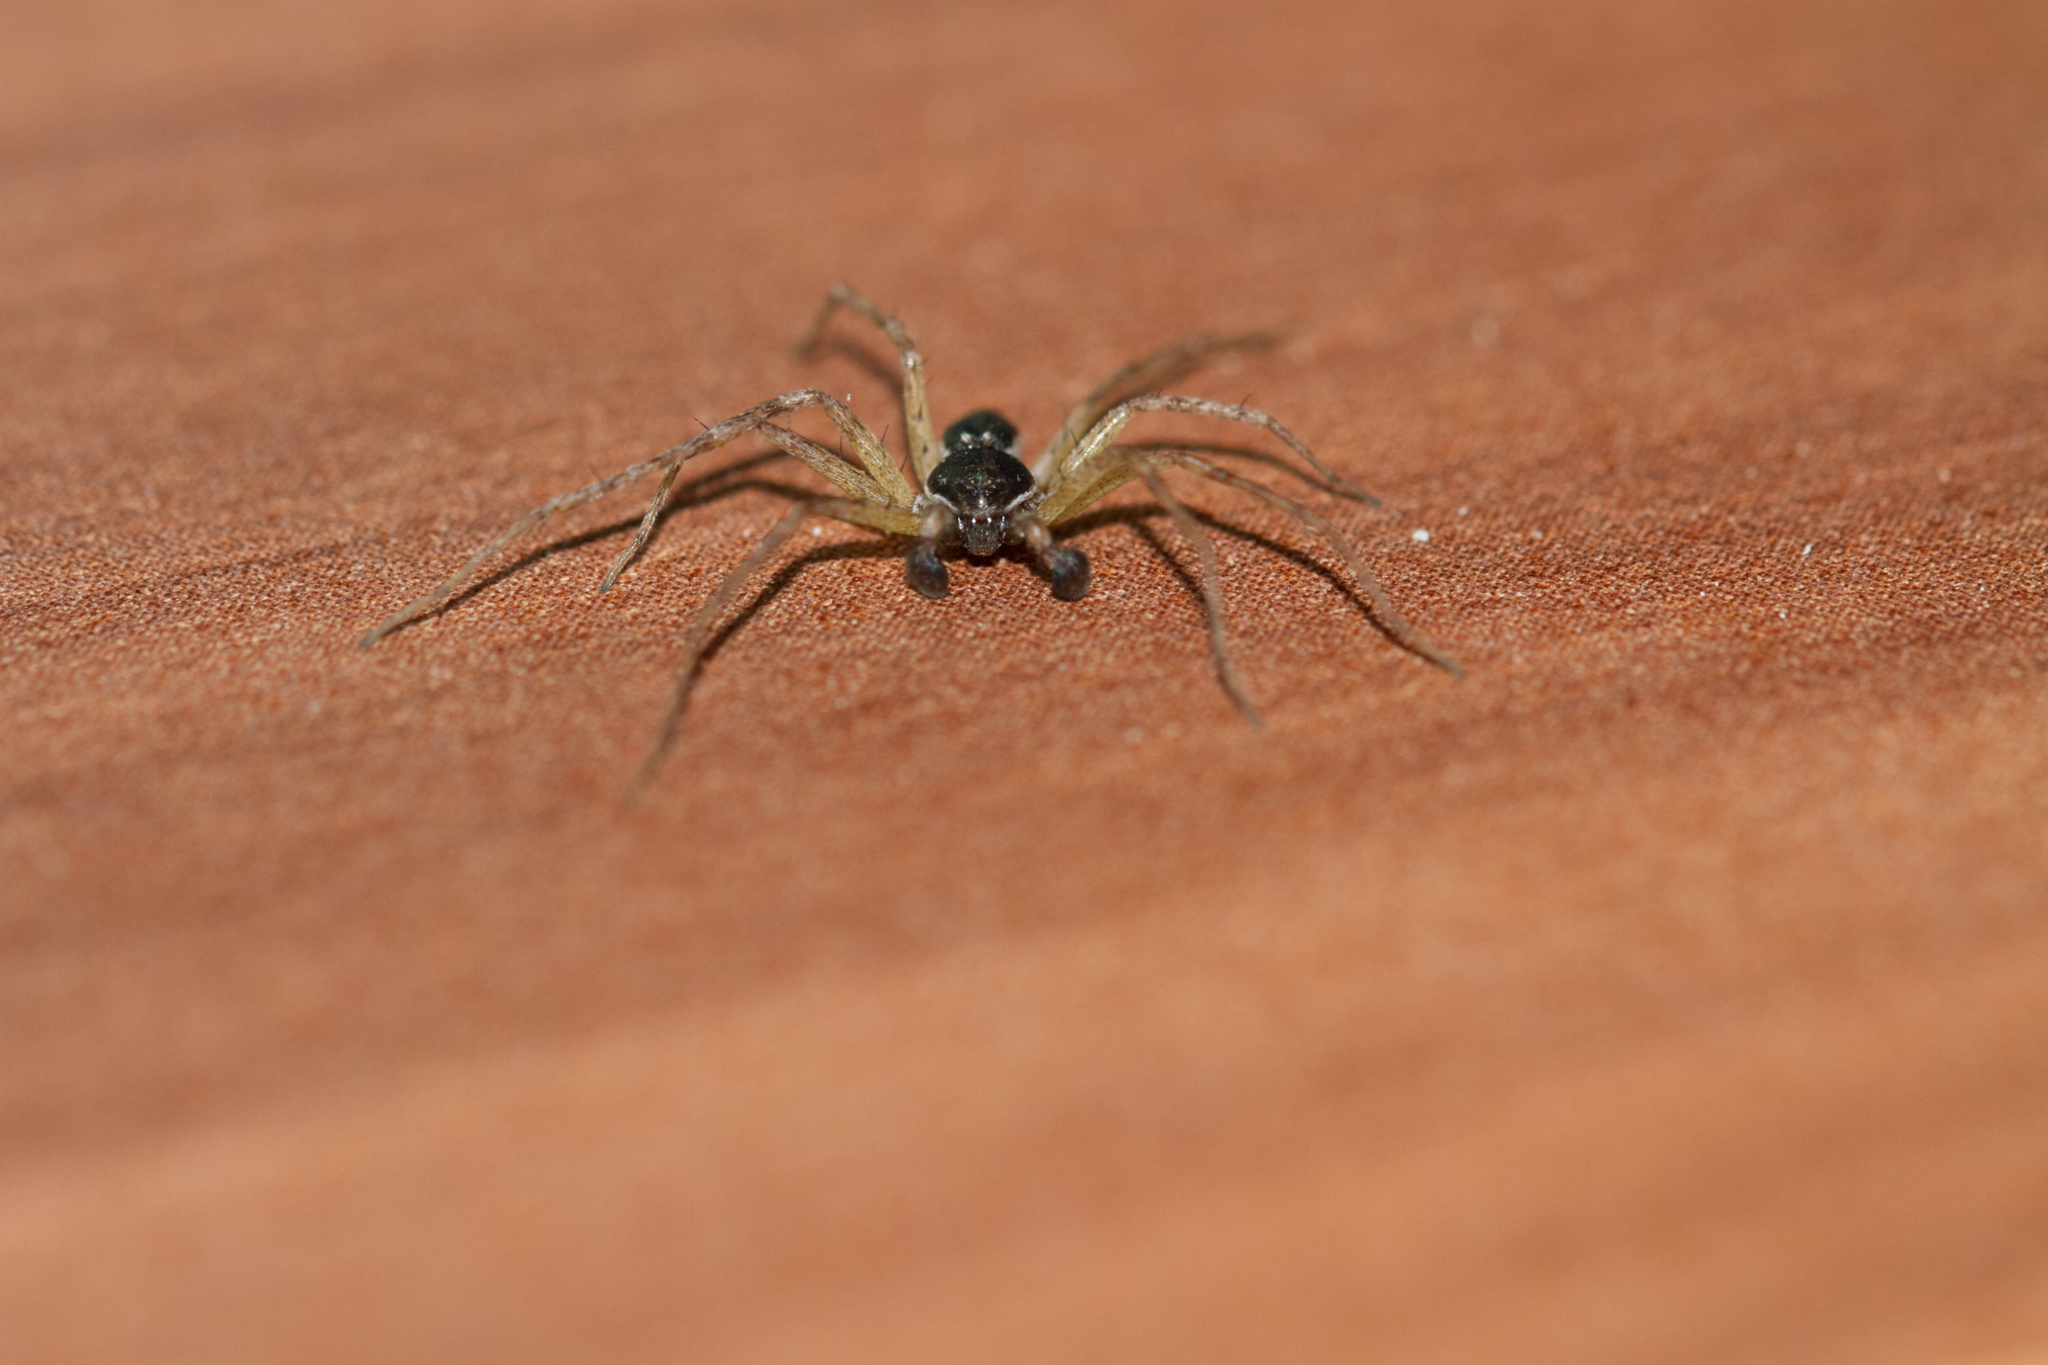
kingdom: Animalia
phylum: Arthropoda
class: Arachnida
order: Araneae
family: Philodromidae
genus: Philodromus
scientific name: Philodromus dispar
